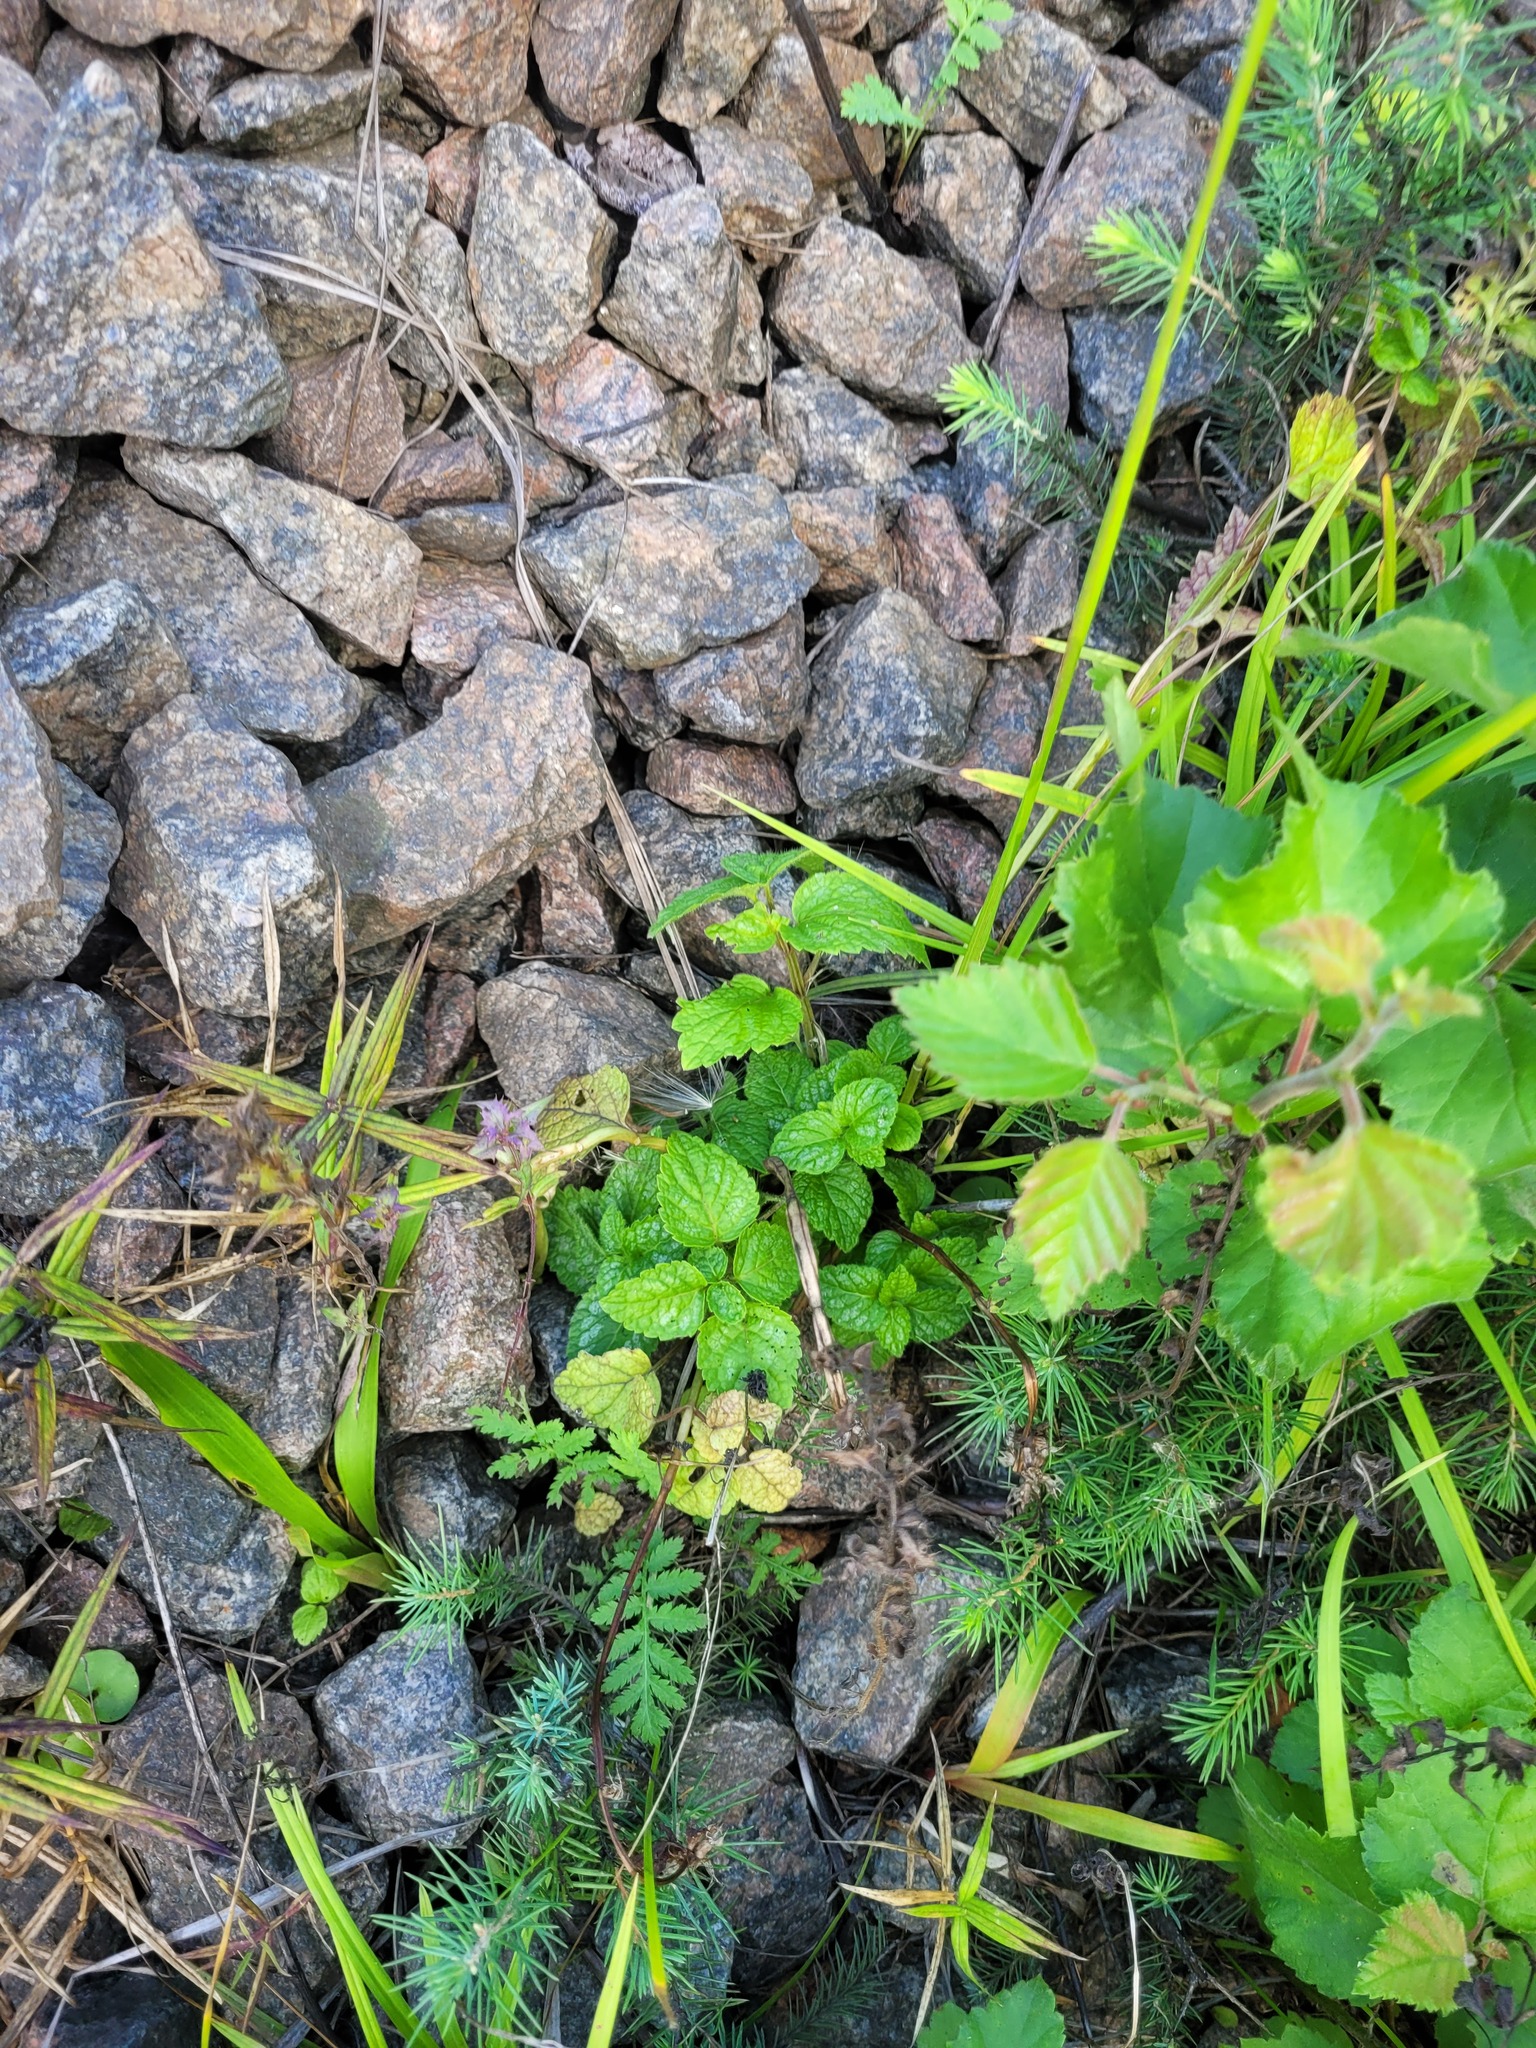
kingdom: Plantae
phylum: Tracheophyta
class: Magnoliopsida
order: Lamiales
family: Lamiaceae
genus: Lamium
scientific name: Lamium galeobdolon
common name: Yellow archangel
